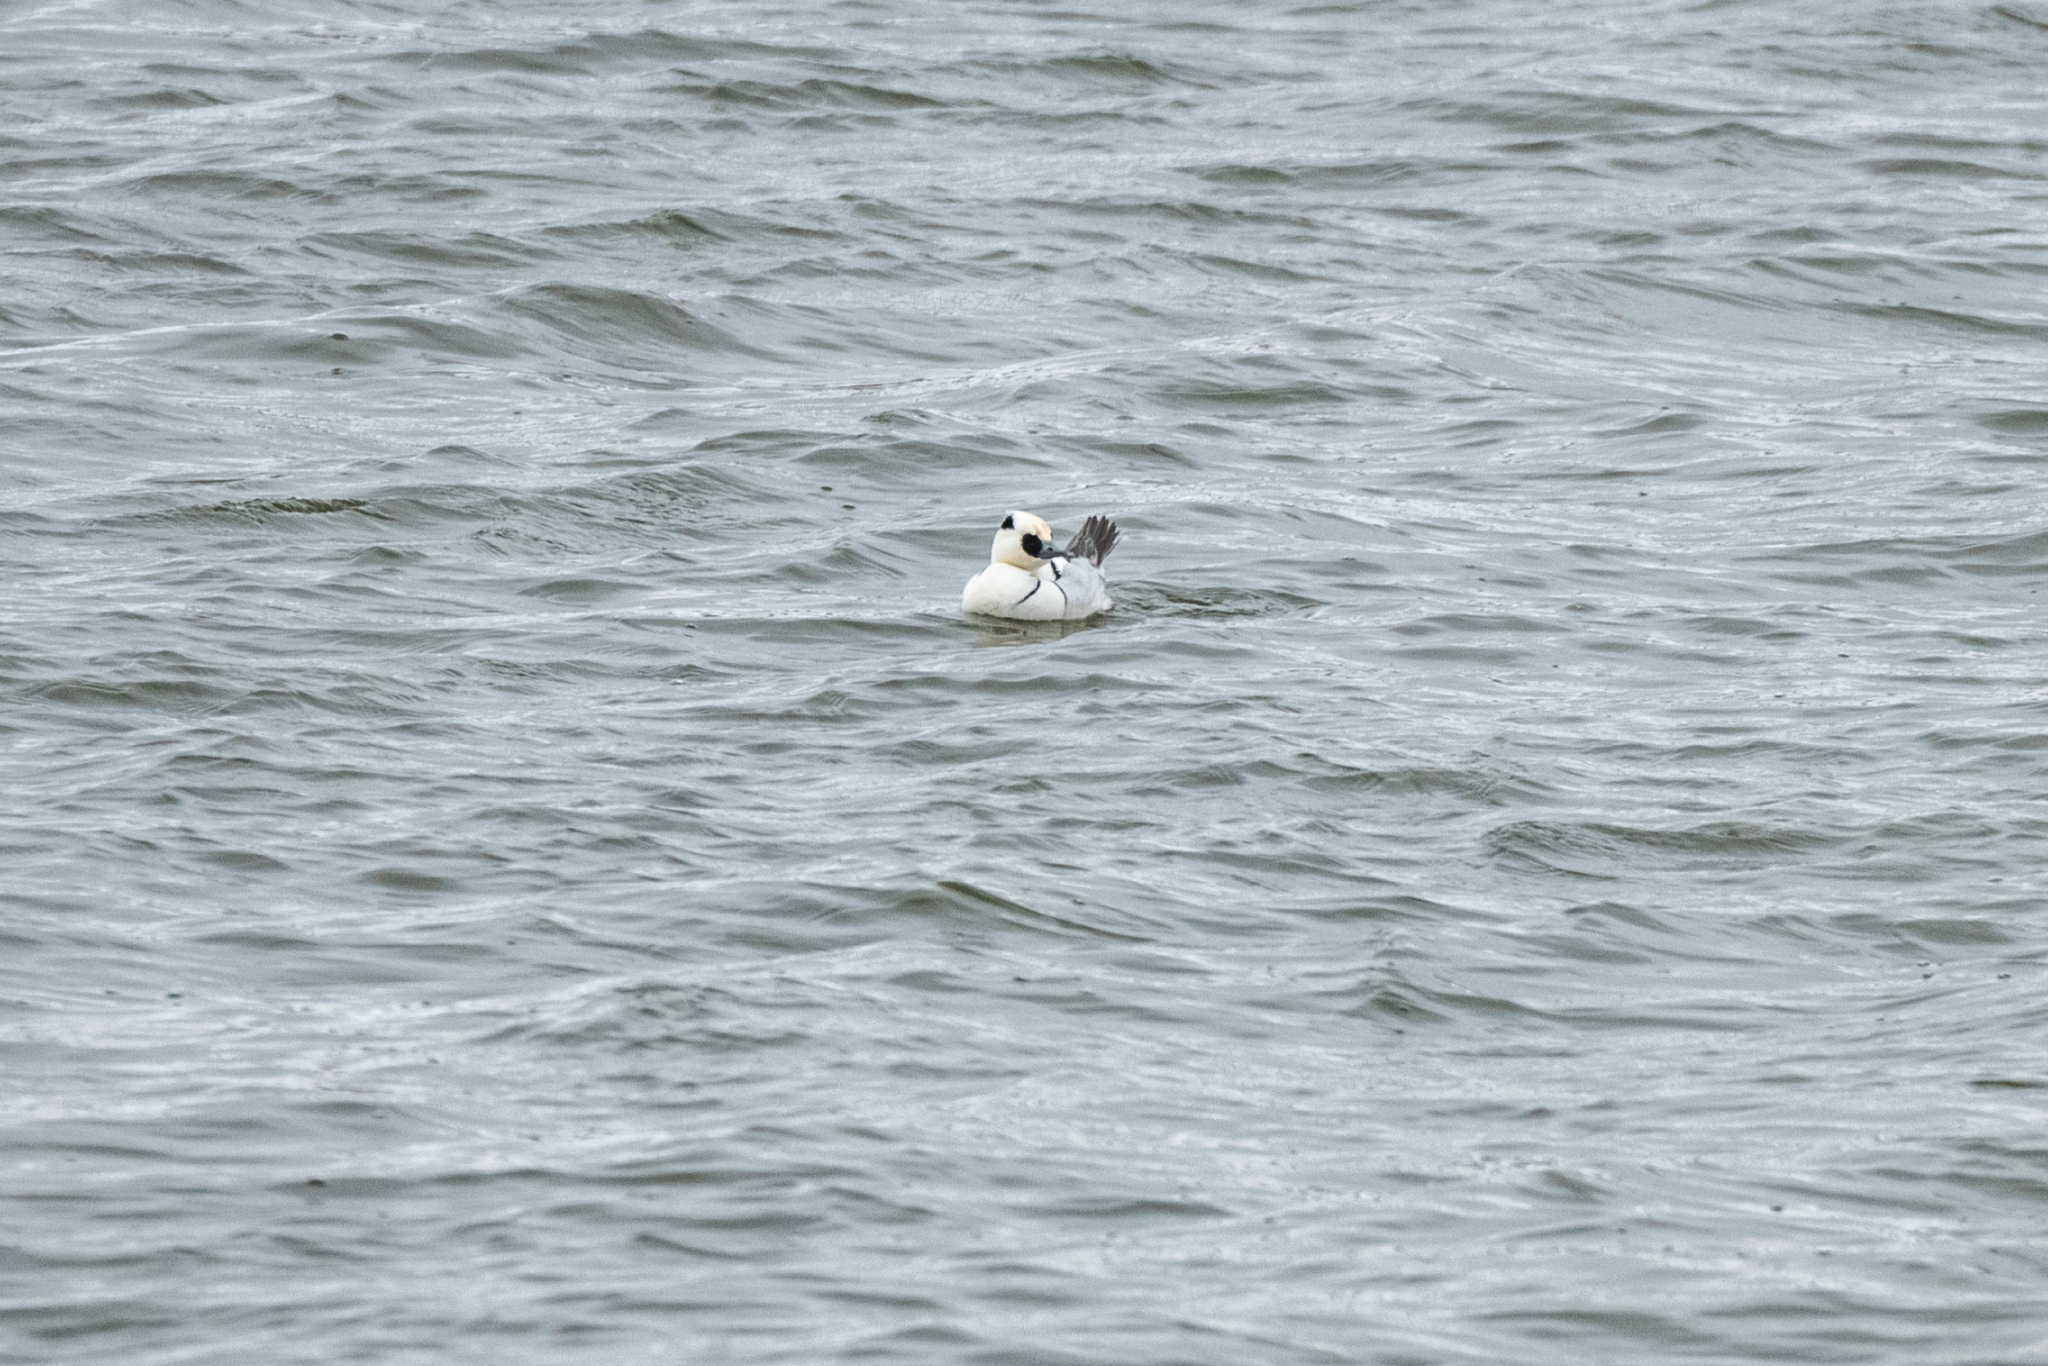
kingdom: Animalia
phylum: Chordata
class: Aves
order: Anseriformes
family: Anatidae
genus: Mergellus
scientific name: Mergellus albellus
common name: Smew
